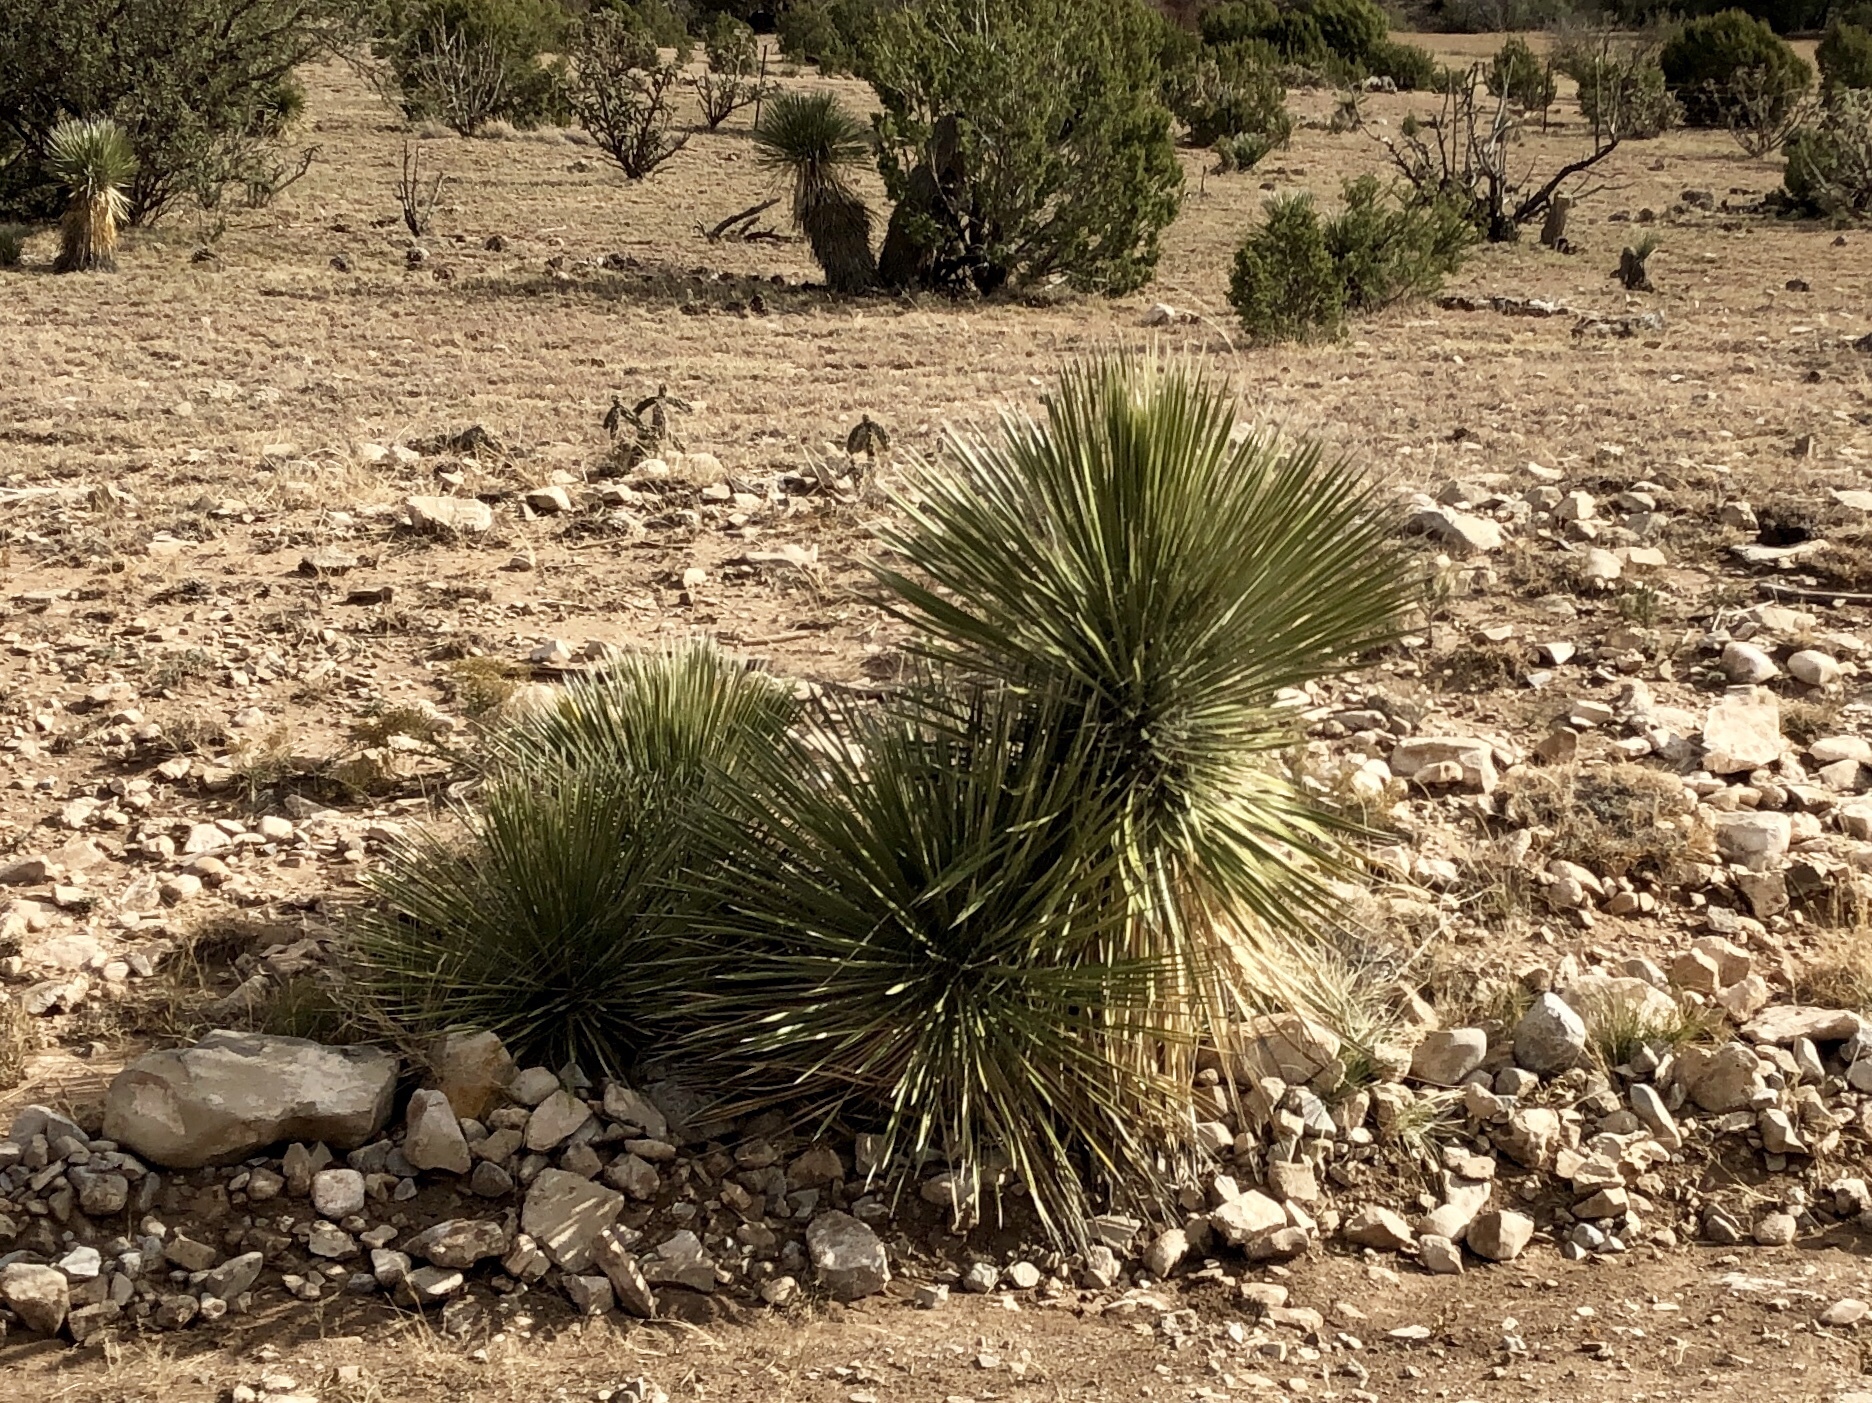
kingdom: Plantae
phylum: Tracheophyta
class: Liliopsida
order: Asparagales
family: Asparagaceae
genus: Yucca
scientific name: Yucca elata
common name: Palmella
